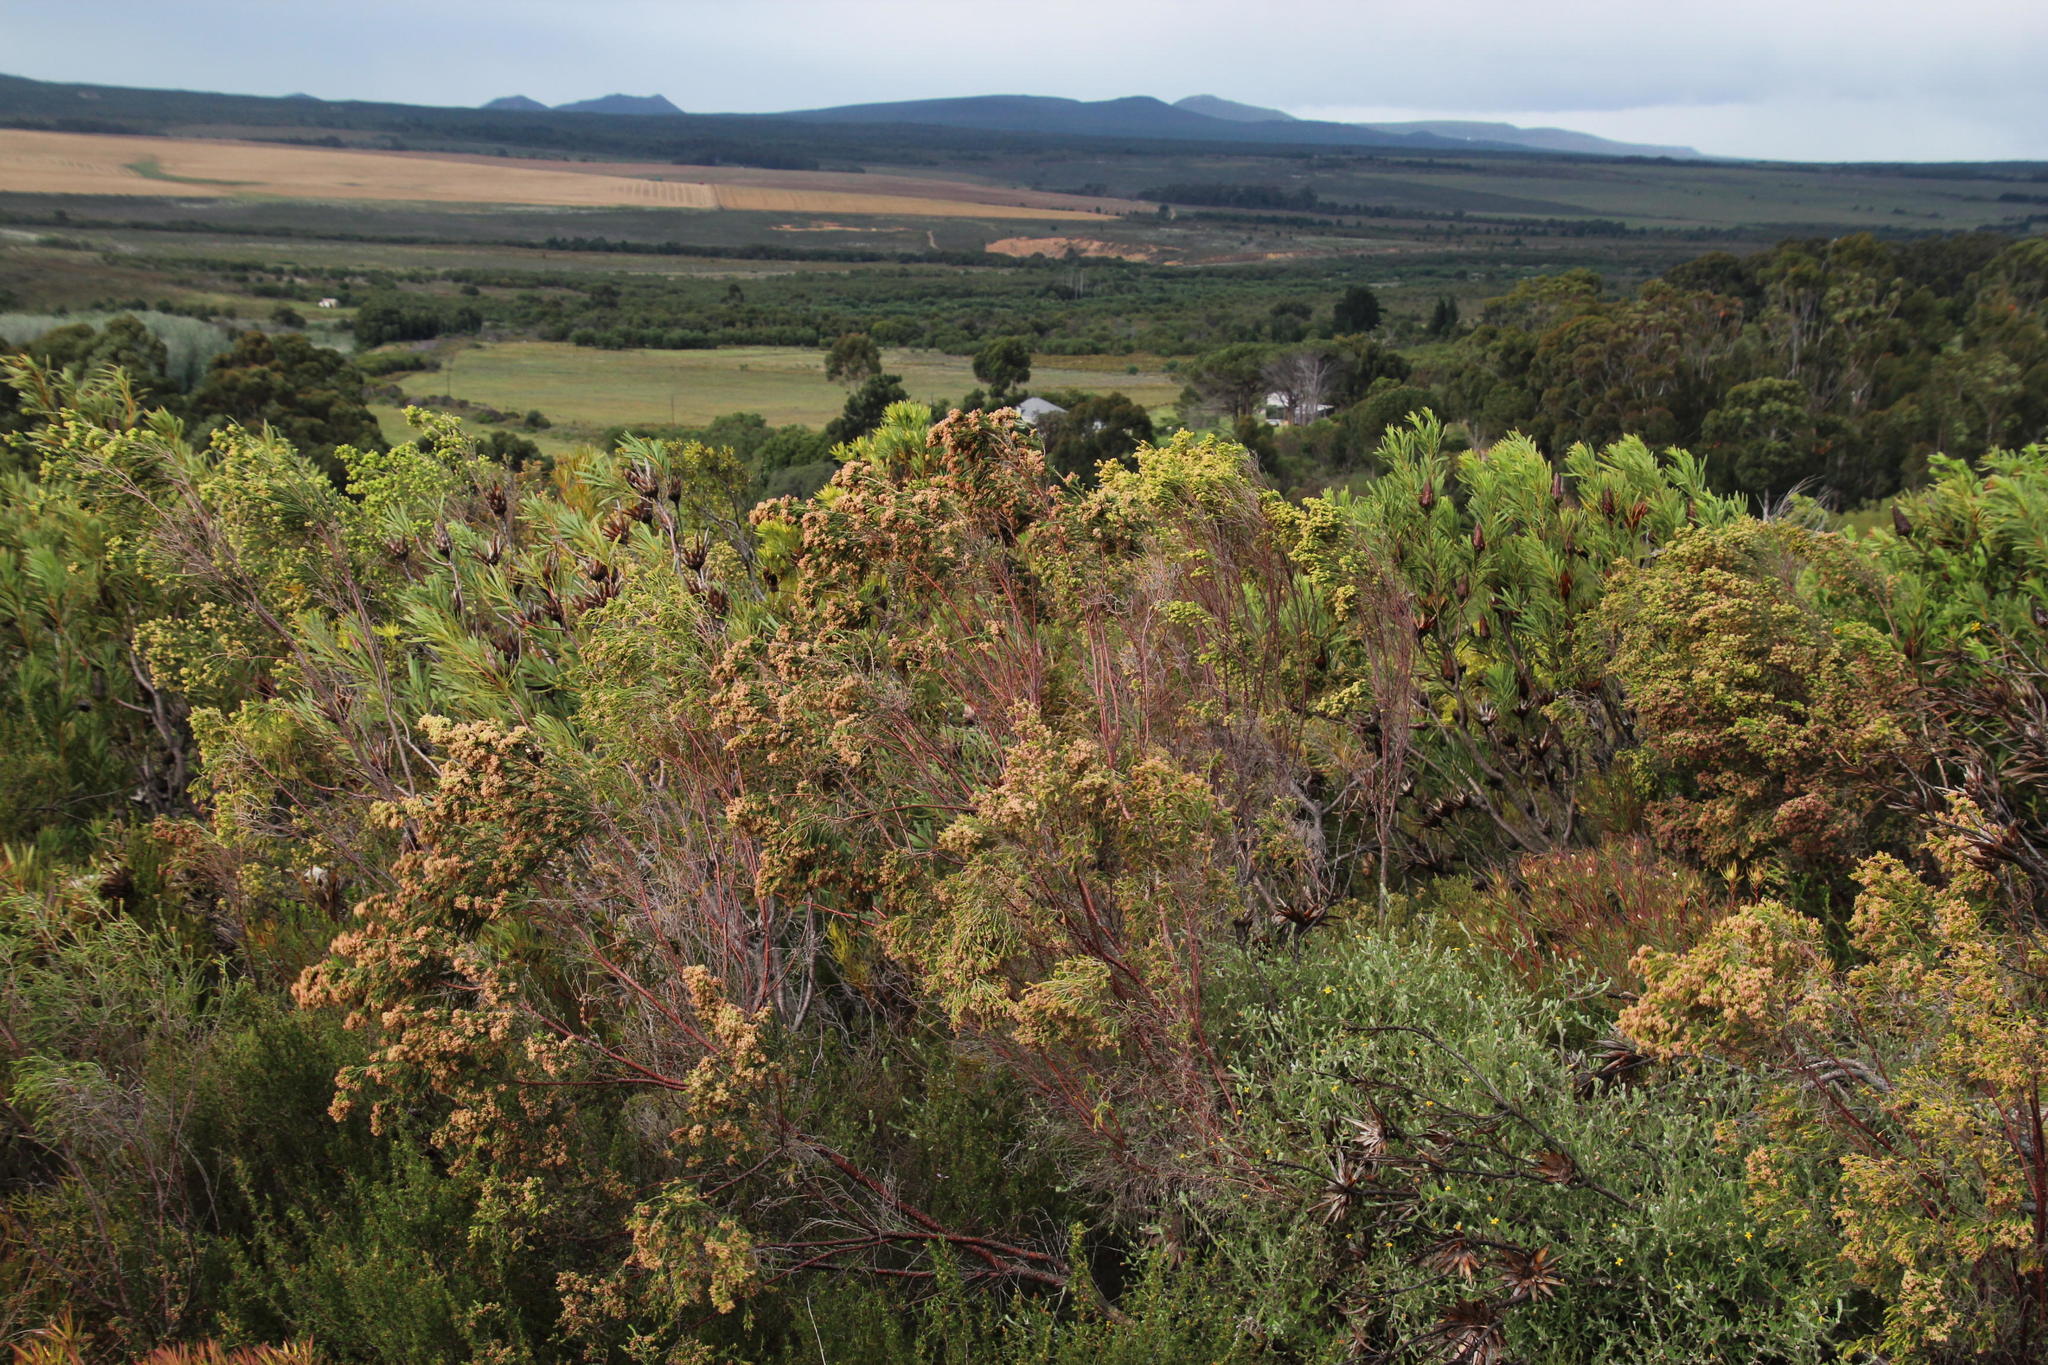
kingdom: Plantae
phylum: Tracheophyta
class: Magnoliopsida
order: Malvales
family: Thymelaeaceae
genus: Passerina
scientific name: Passerina corymbosa
